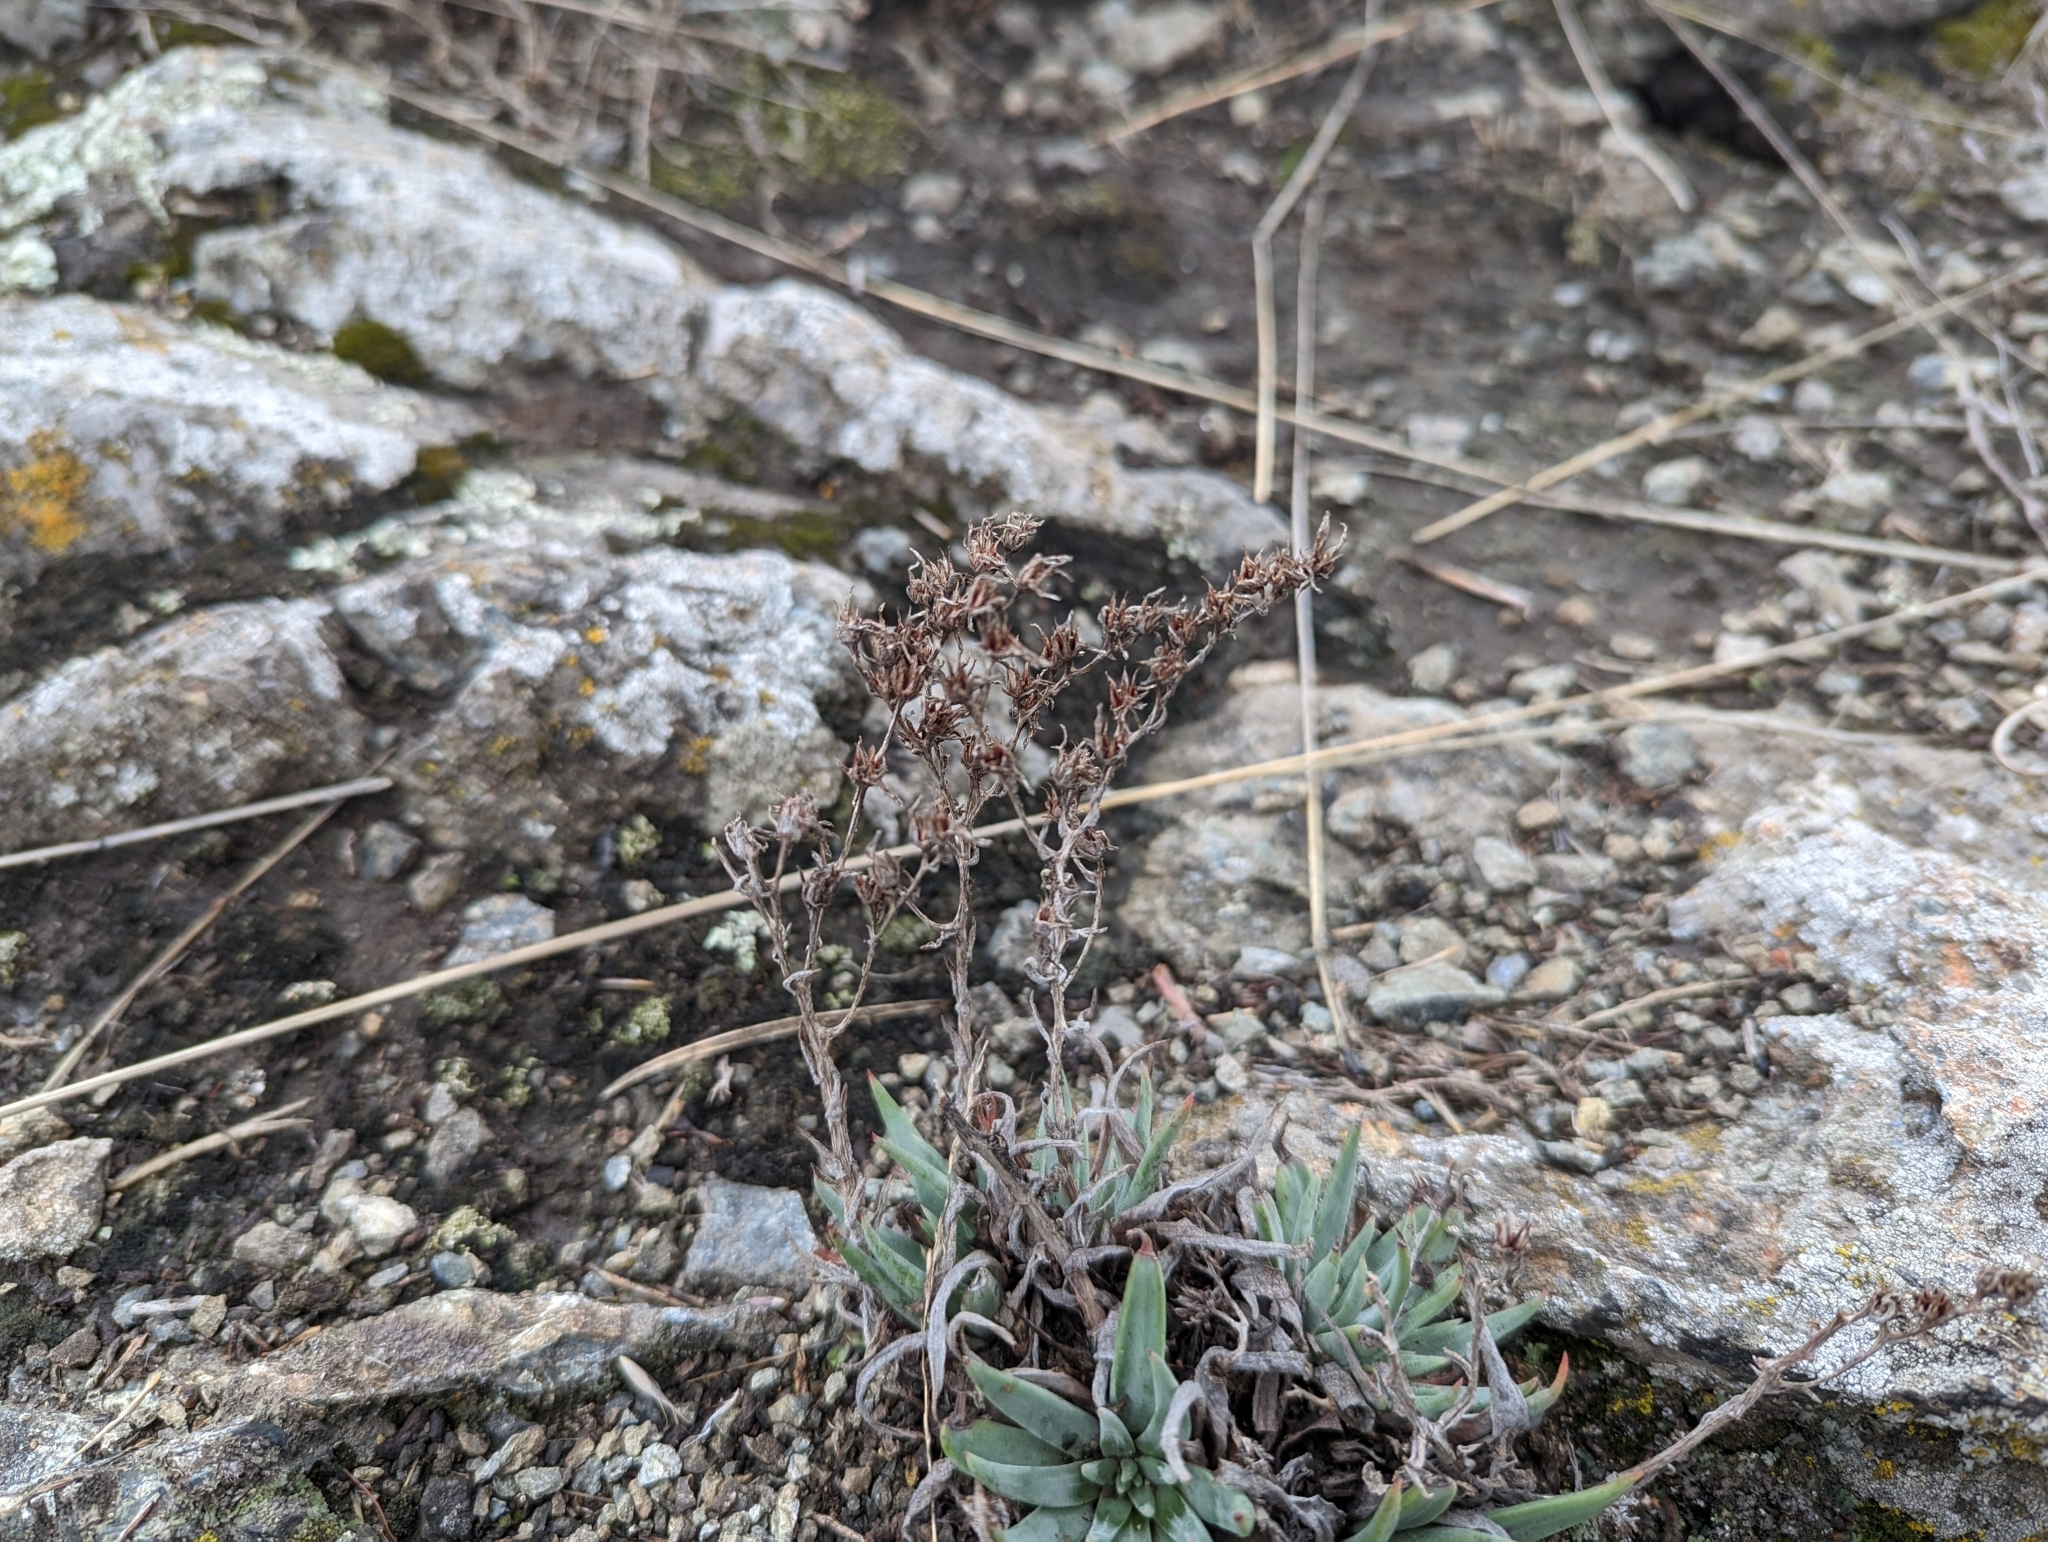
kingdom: Plantae
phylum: Tracheophyta
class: Magnoliopsida
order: Saxifragales
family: Crassulaceae
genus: Dudleya
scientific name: Dudleya abramsii
